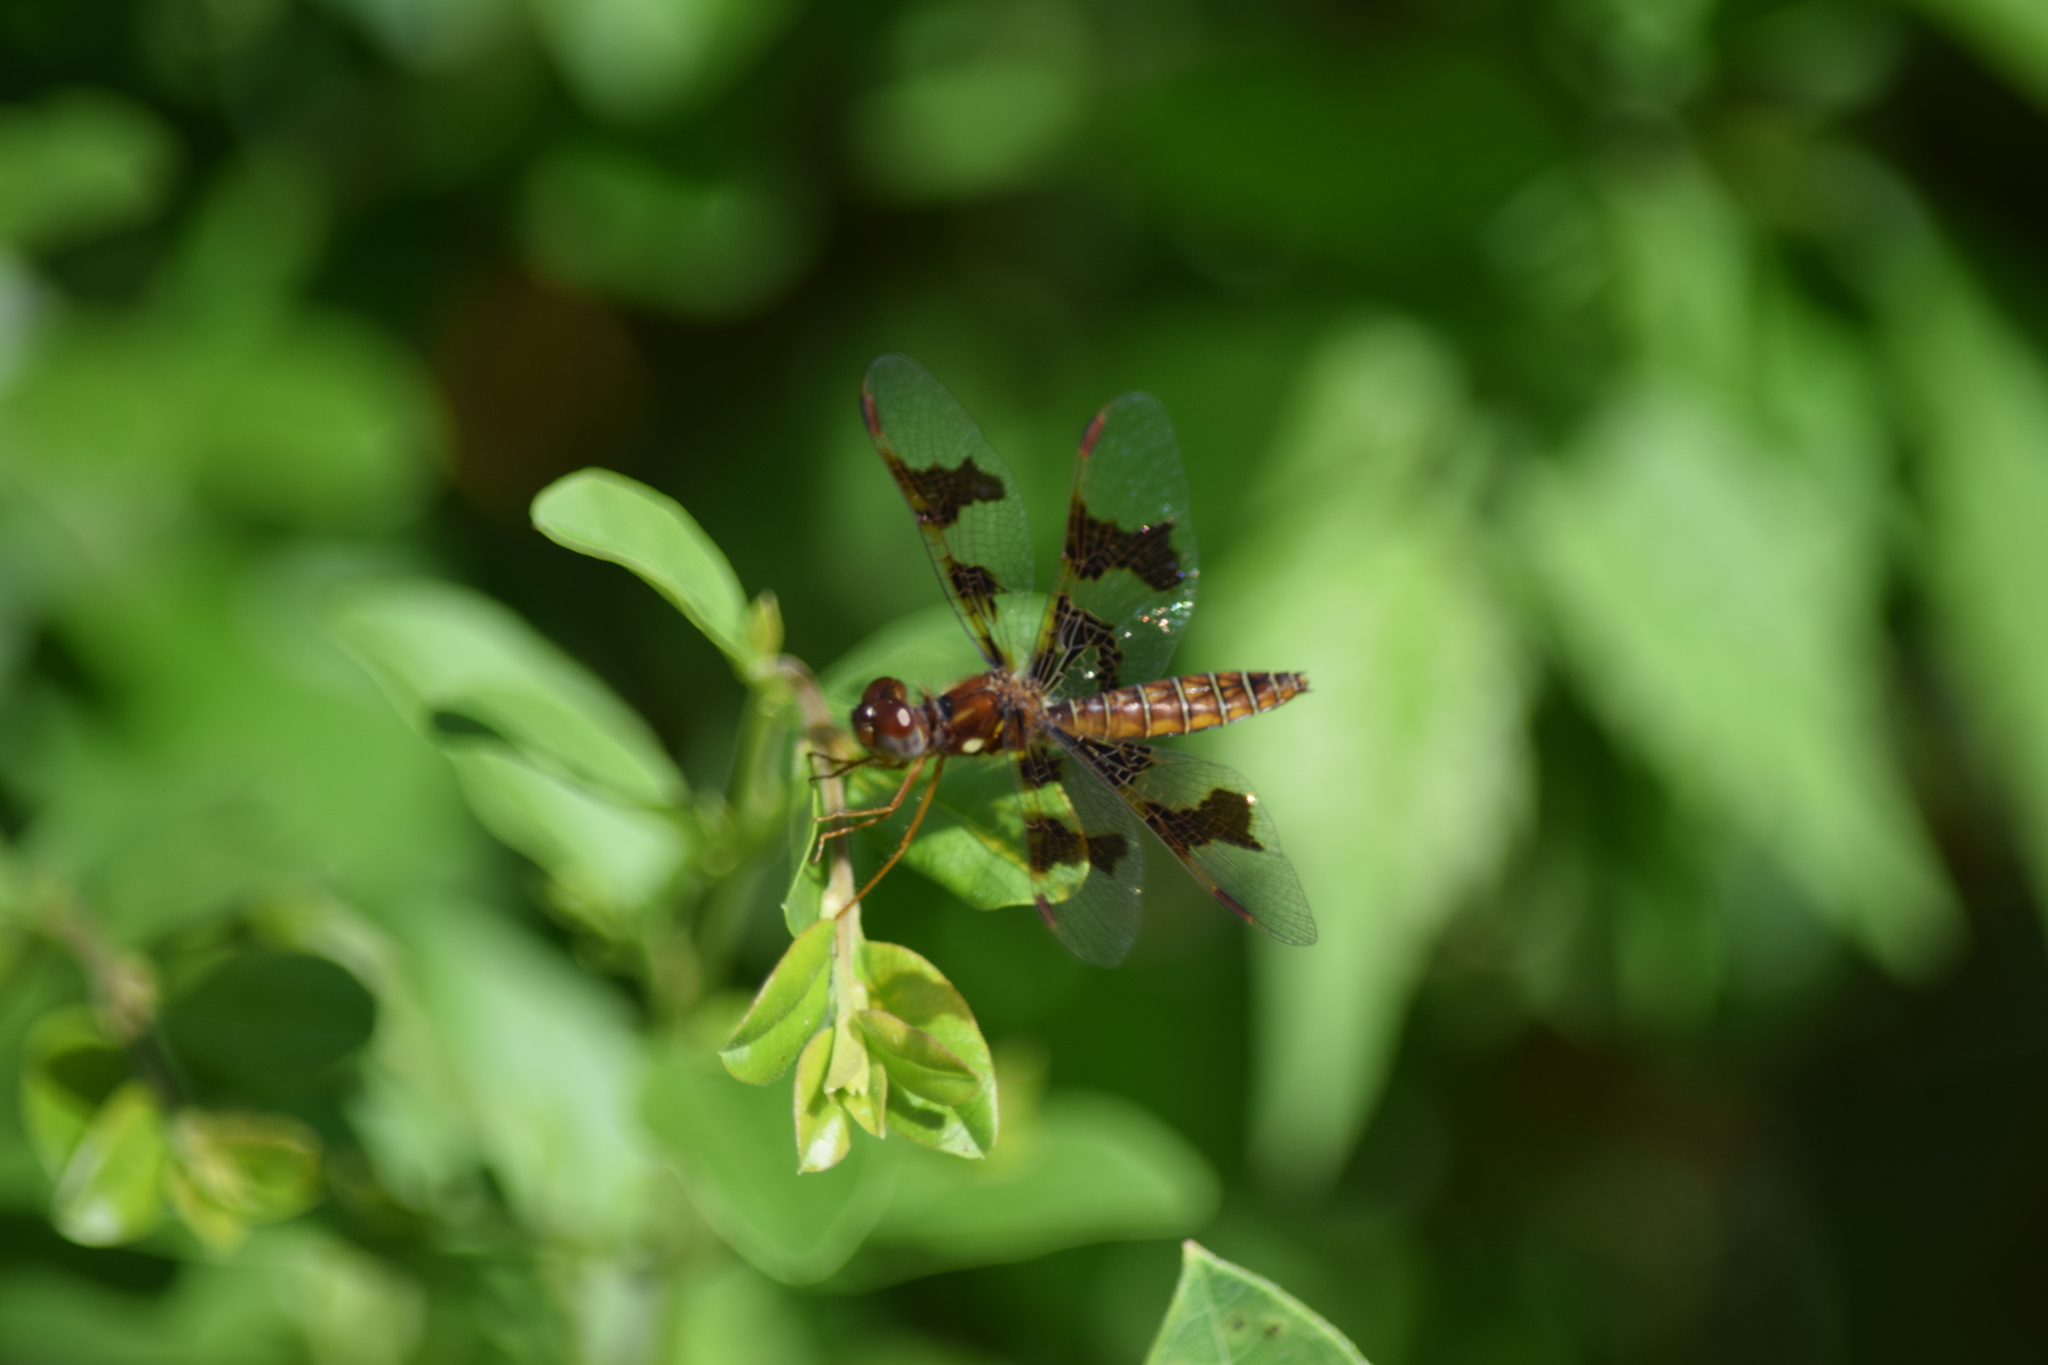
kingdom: Animalia
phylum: Arthropoda
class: Insecta
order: Odonata
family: Libellulidae
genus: Perithemis
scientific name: Perithemis tenera
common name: Eastern amberwing
